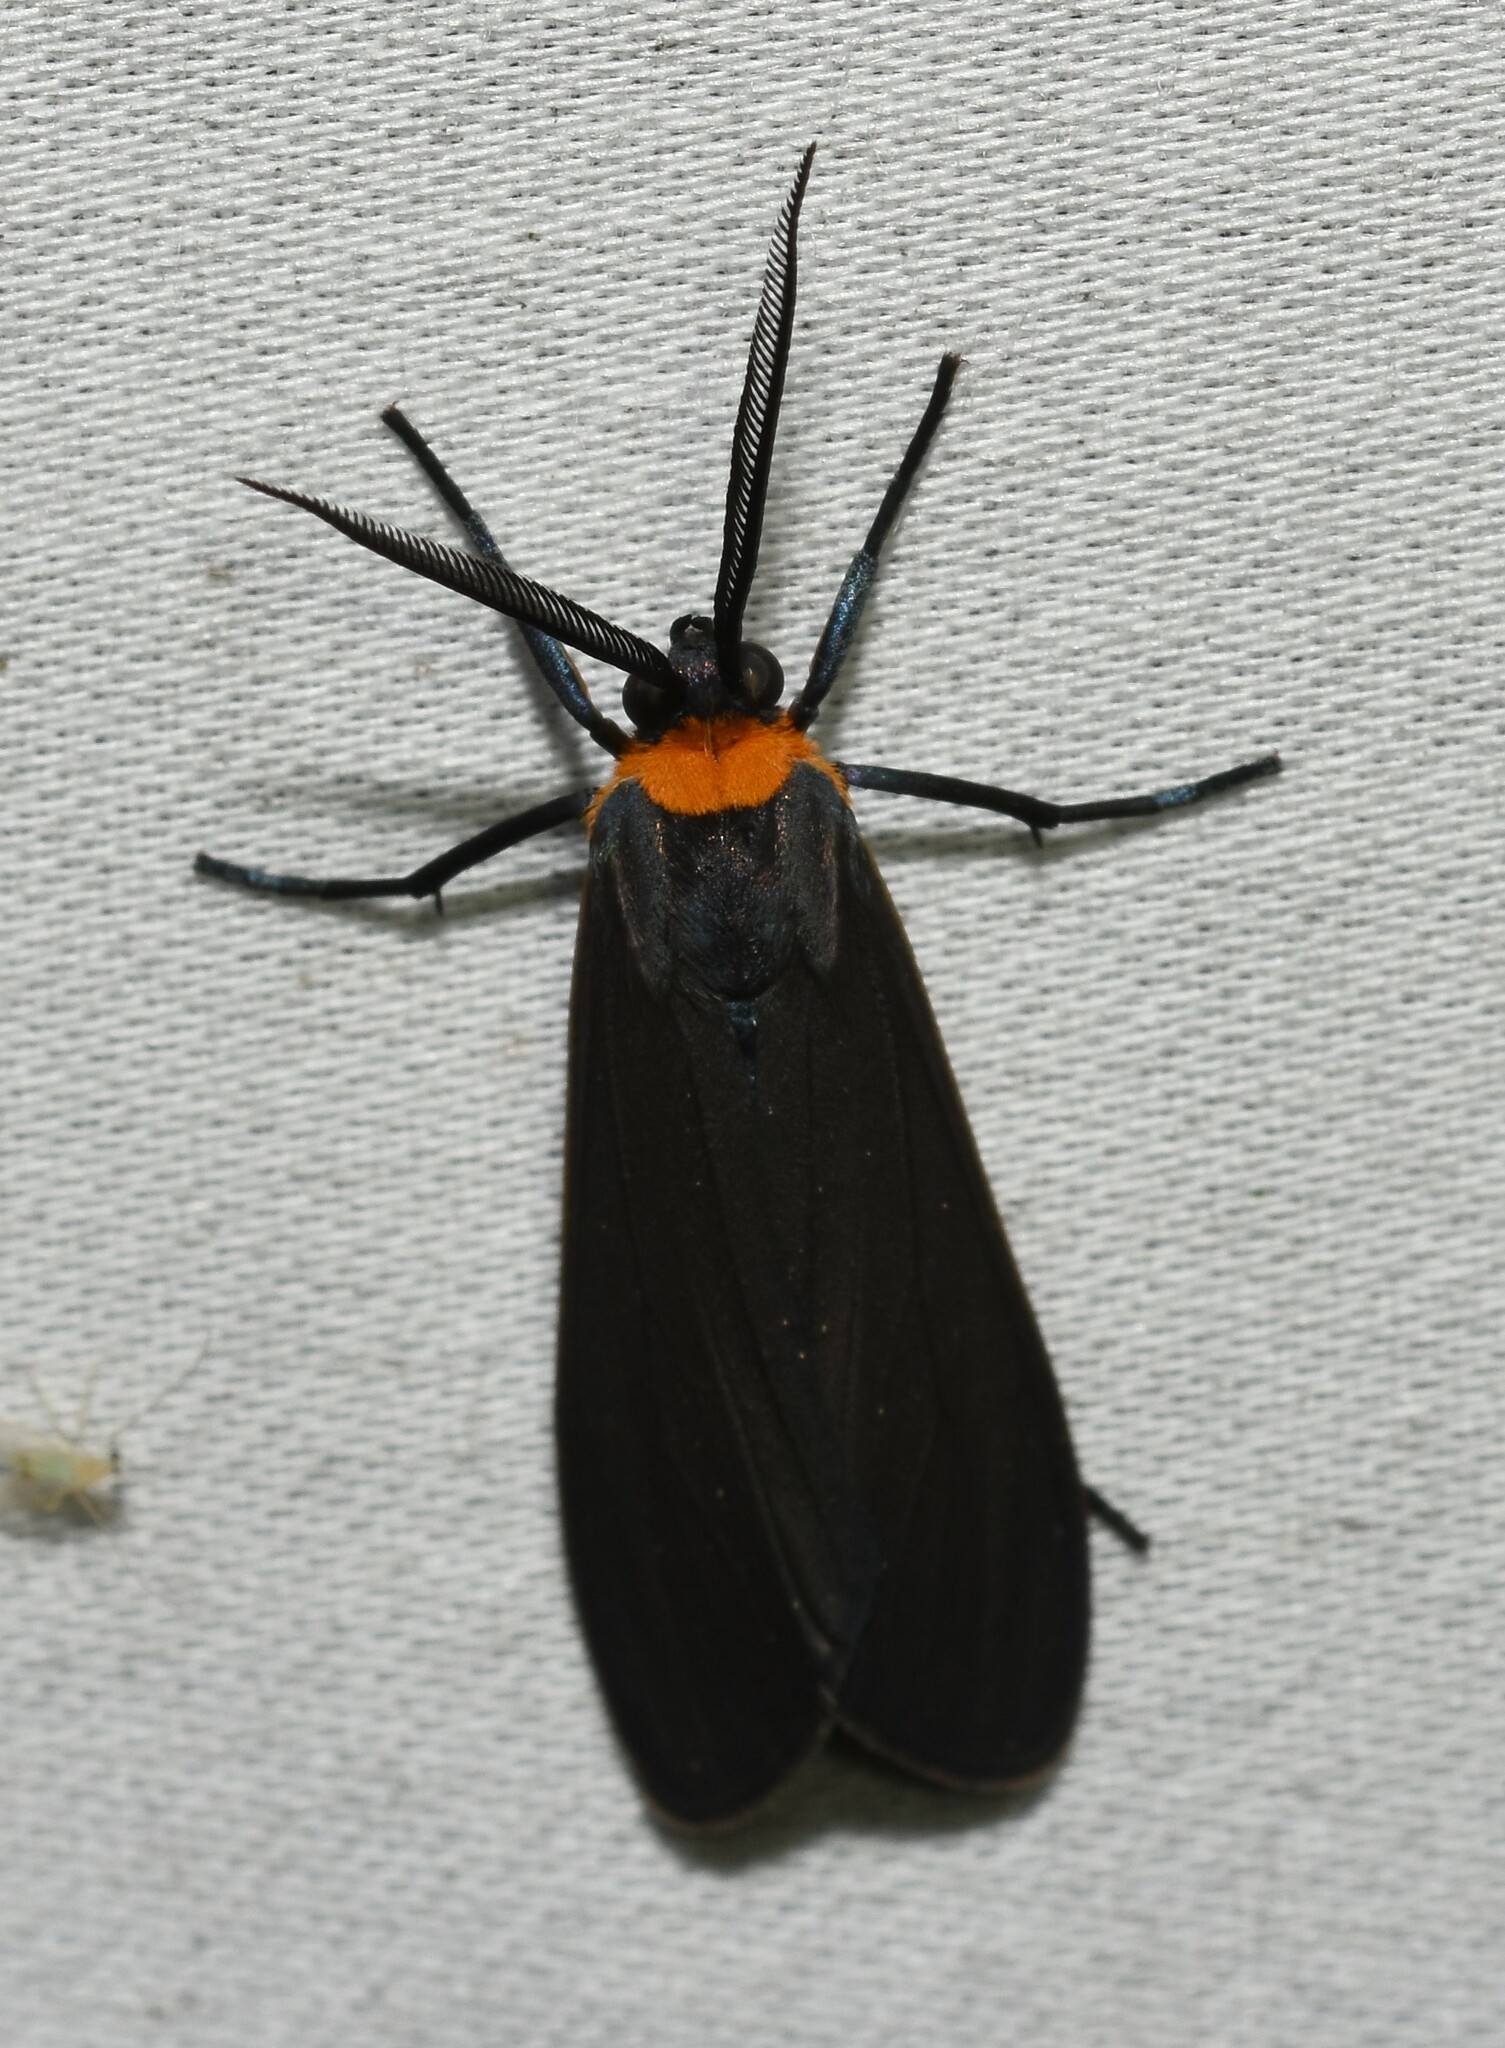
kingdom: Animalia
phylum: Arthropoda
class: Insecta
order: Lepidoptera
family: Erebidae
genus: Cisseps
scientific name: Cisseps fulvicollis
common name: Yellow-collared scape moth
